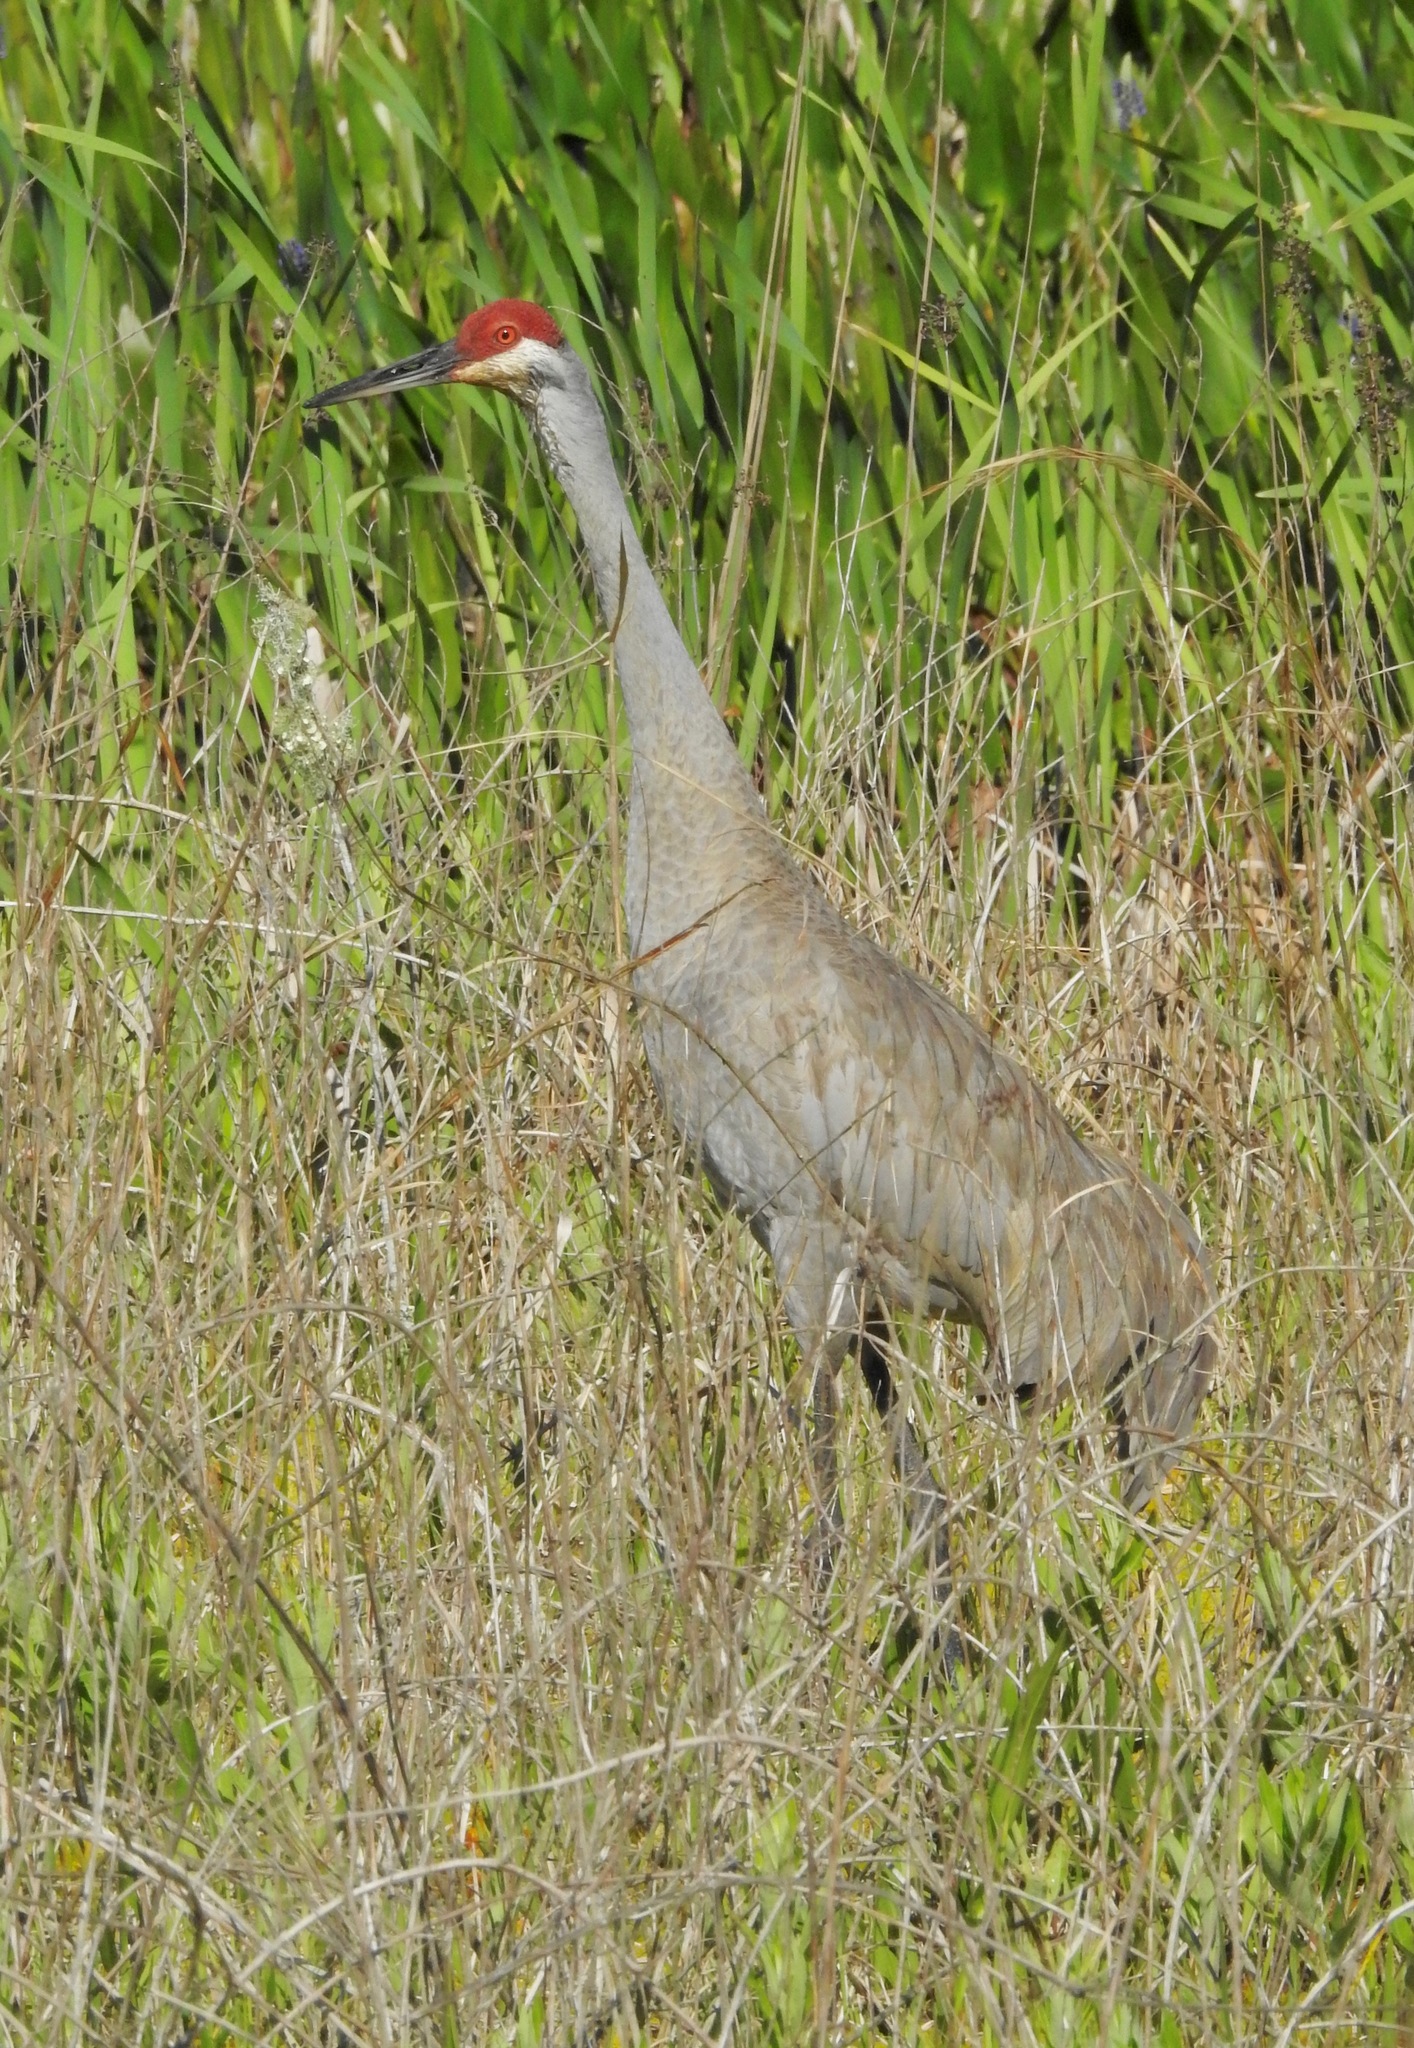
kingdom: Animalia
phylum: Chordata
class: Aves
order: Gruiformes
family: Gruidae
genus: Grus
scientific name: Grus canadensis
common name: Sandhill crane
